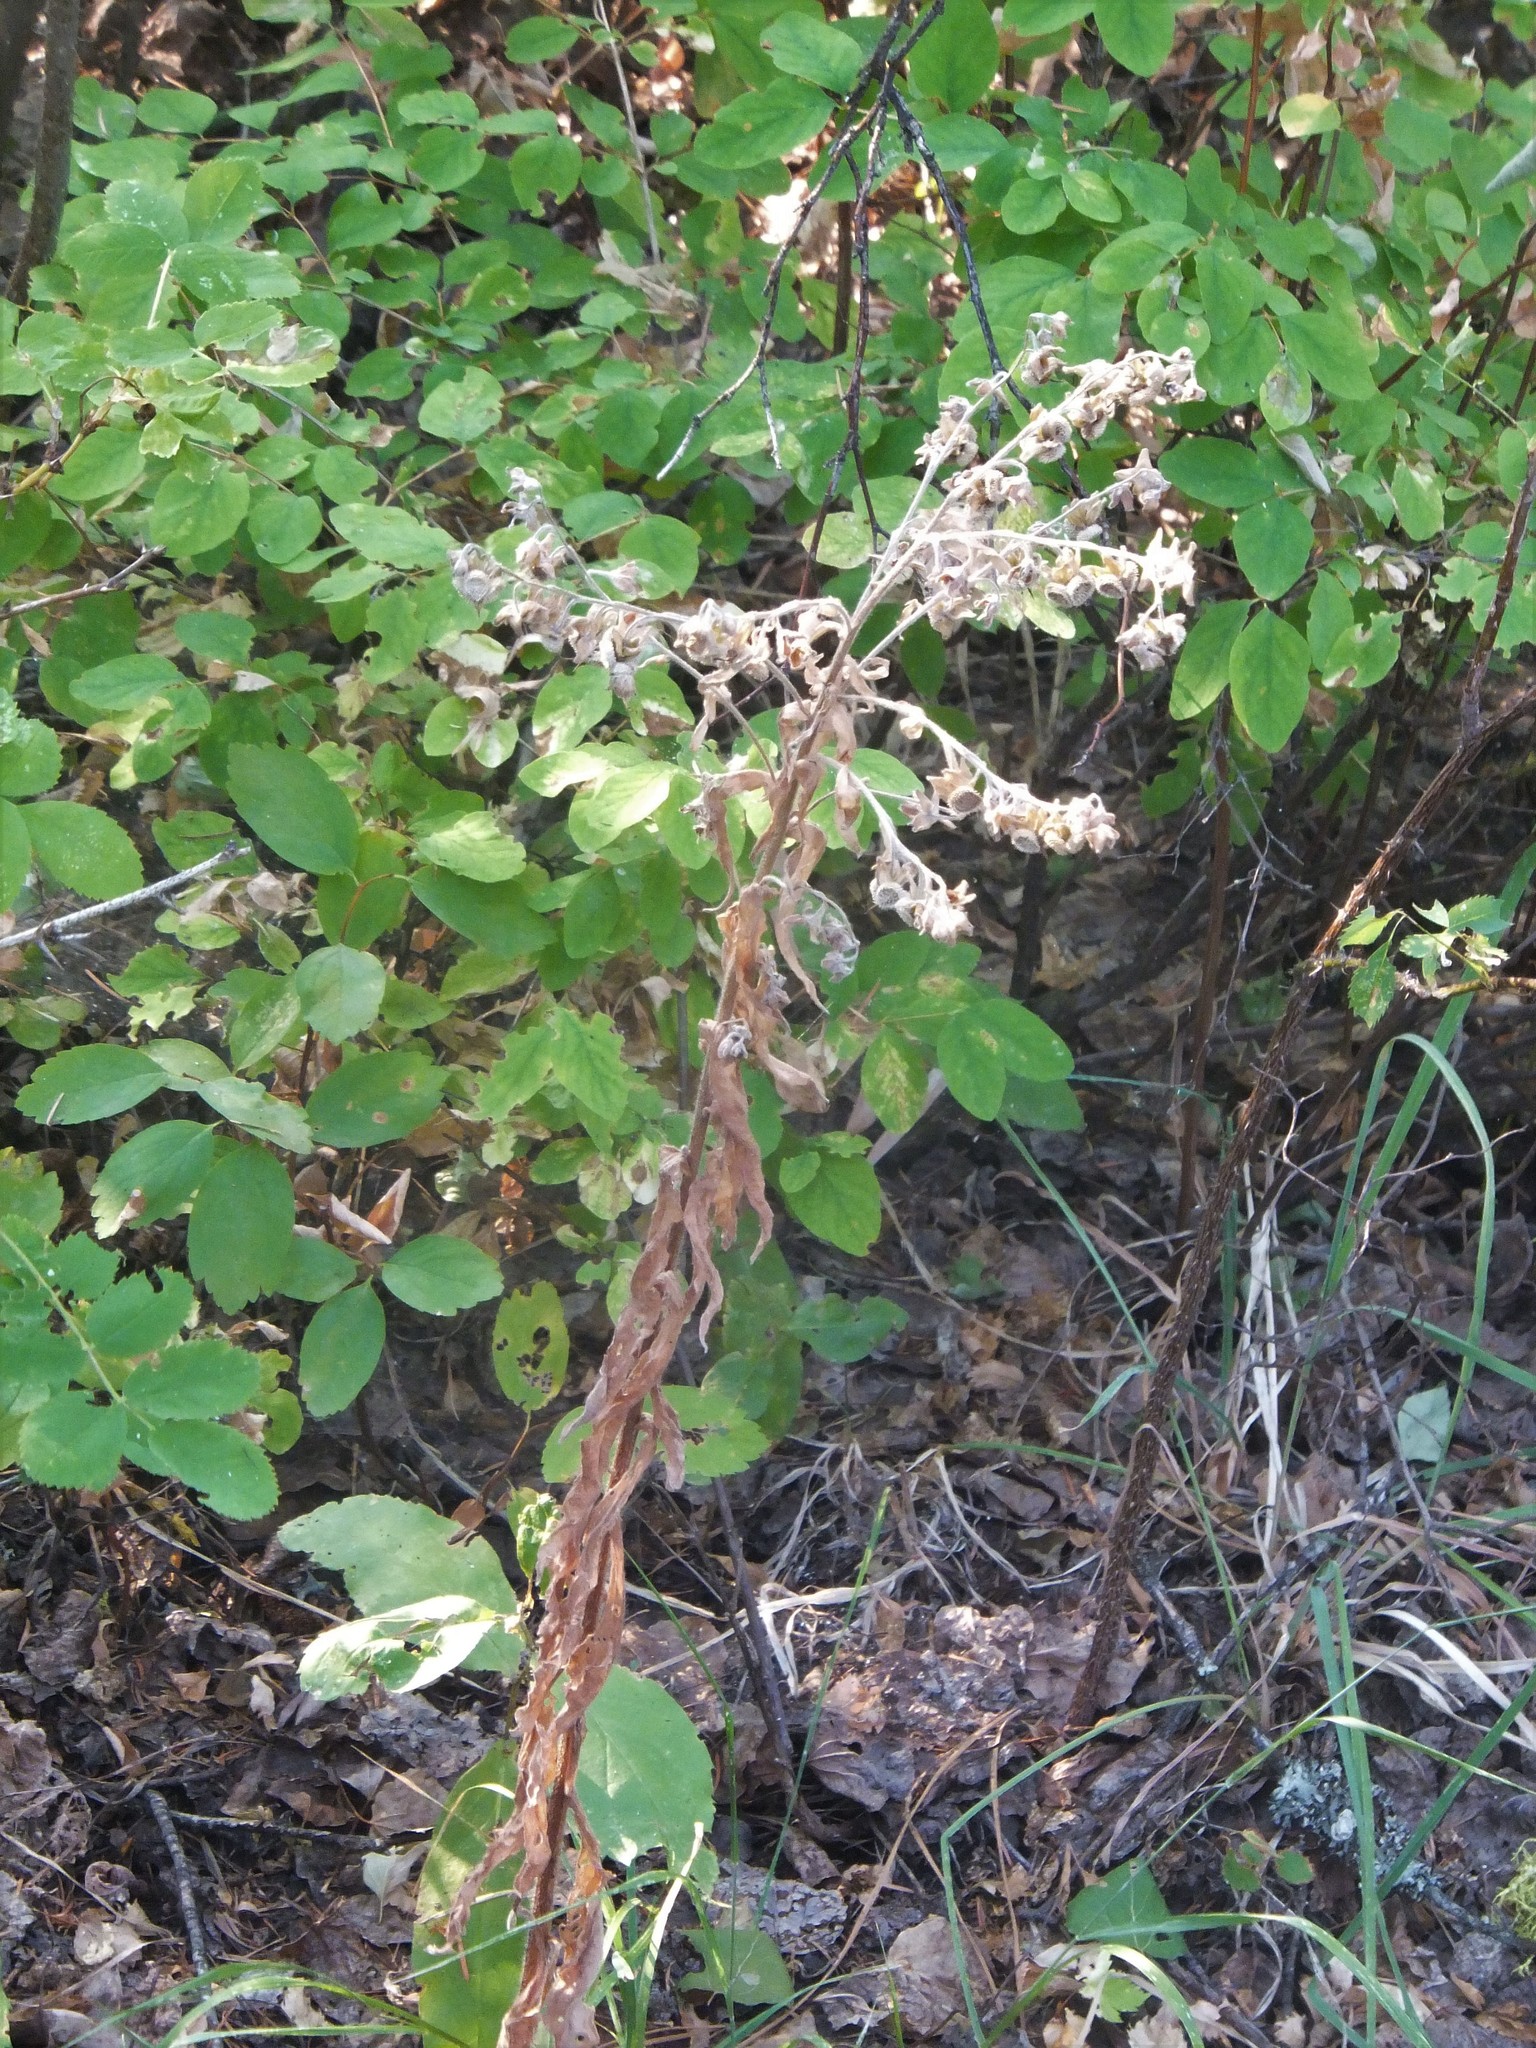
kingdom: Plantae
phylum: Tracheophyta
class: Magnoliopsida
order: Boraginales
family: Boraginaceae
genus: Cynoglossum
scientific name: Cynoglossum officinale
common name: Hound's-tongue
